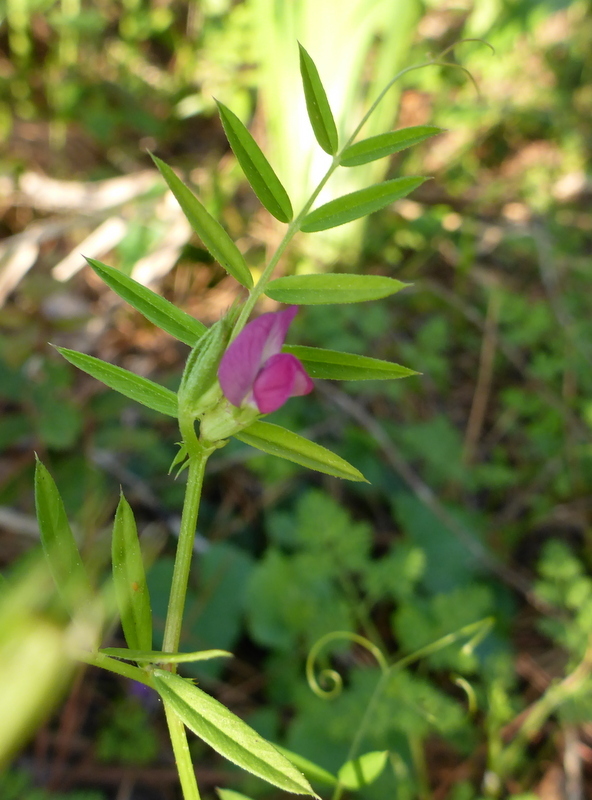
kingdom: Plantae
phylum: Tracheophyta
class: Magnoliopsida
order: Fabales
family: Fabaceae
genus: Vicia
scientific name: Vicia sativa
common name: Garden vetch
